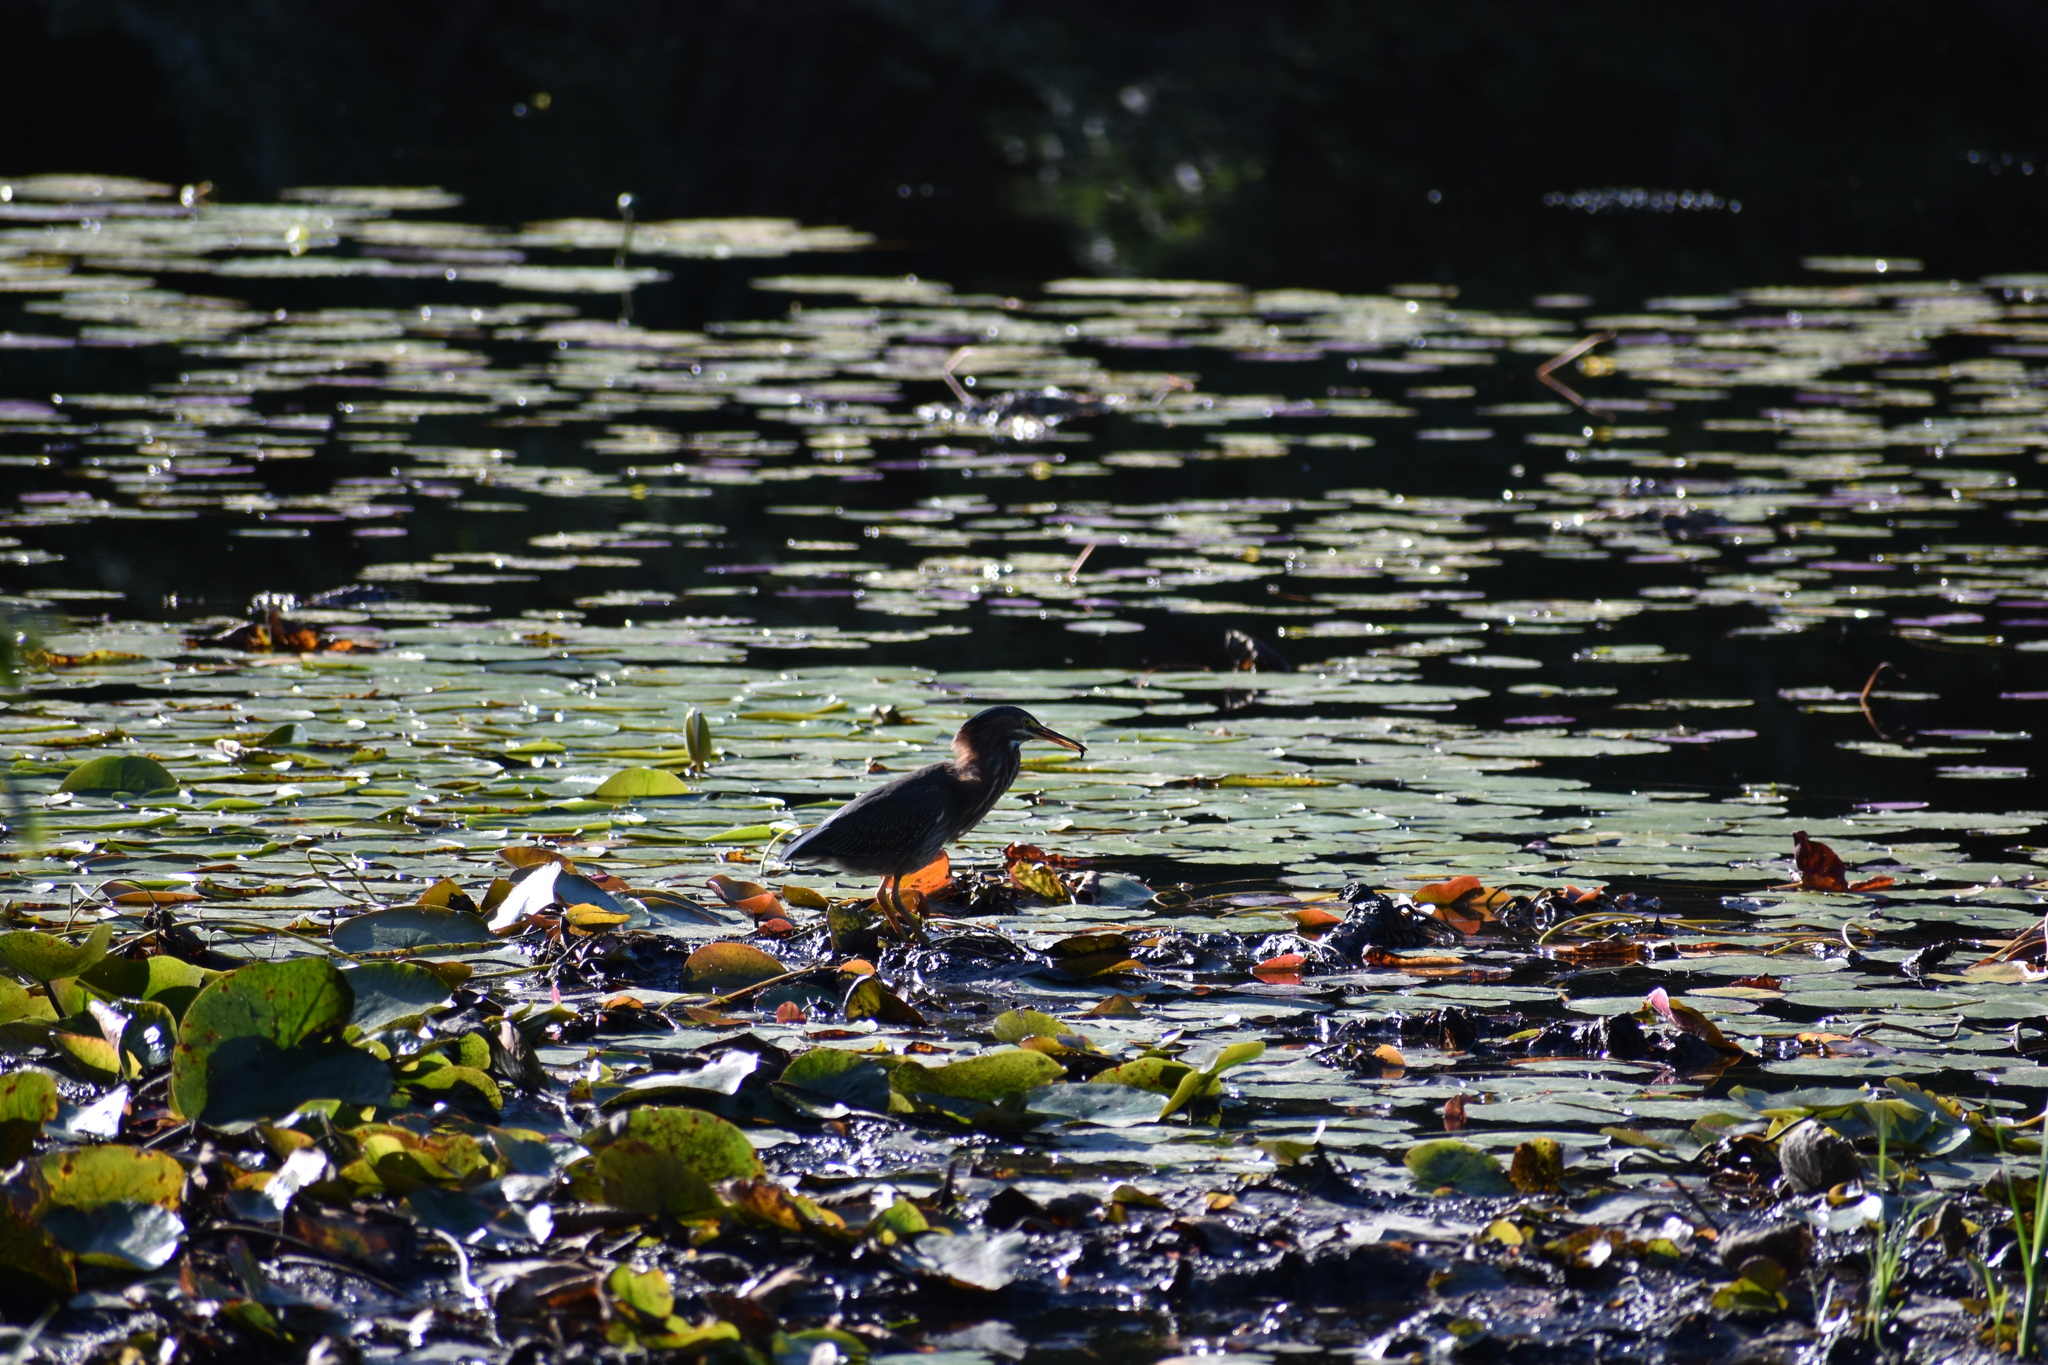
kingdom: Animalia
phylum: Chordata
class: Aves
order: Pelecaniformes
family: Ardeidae
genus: Butorides
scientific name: Butorides virescens
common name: Green heron
